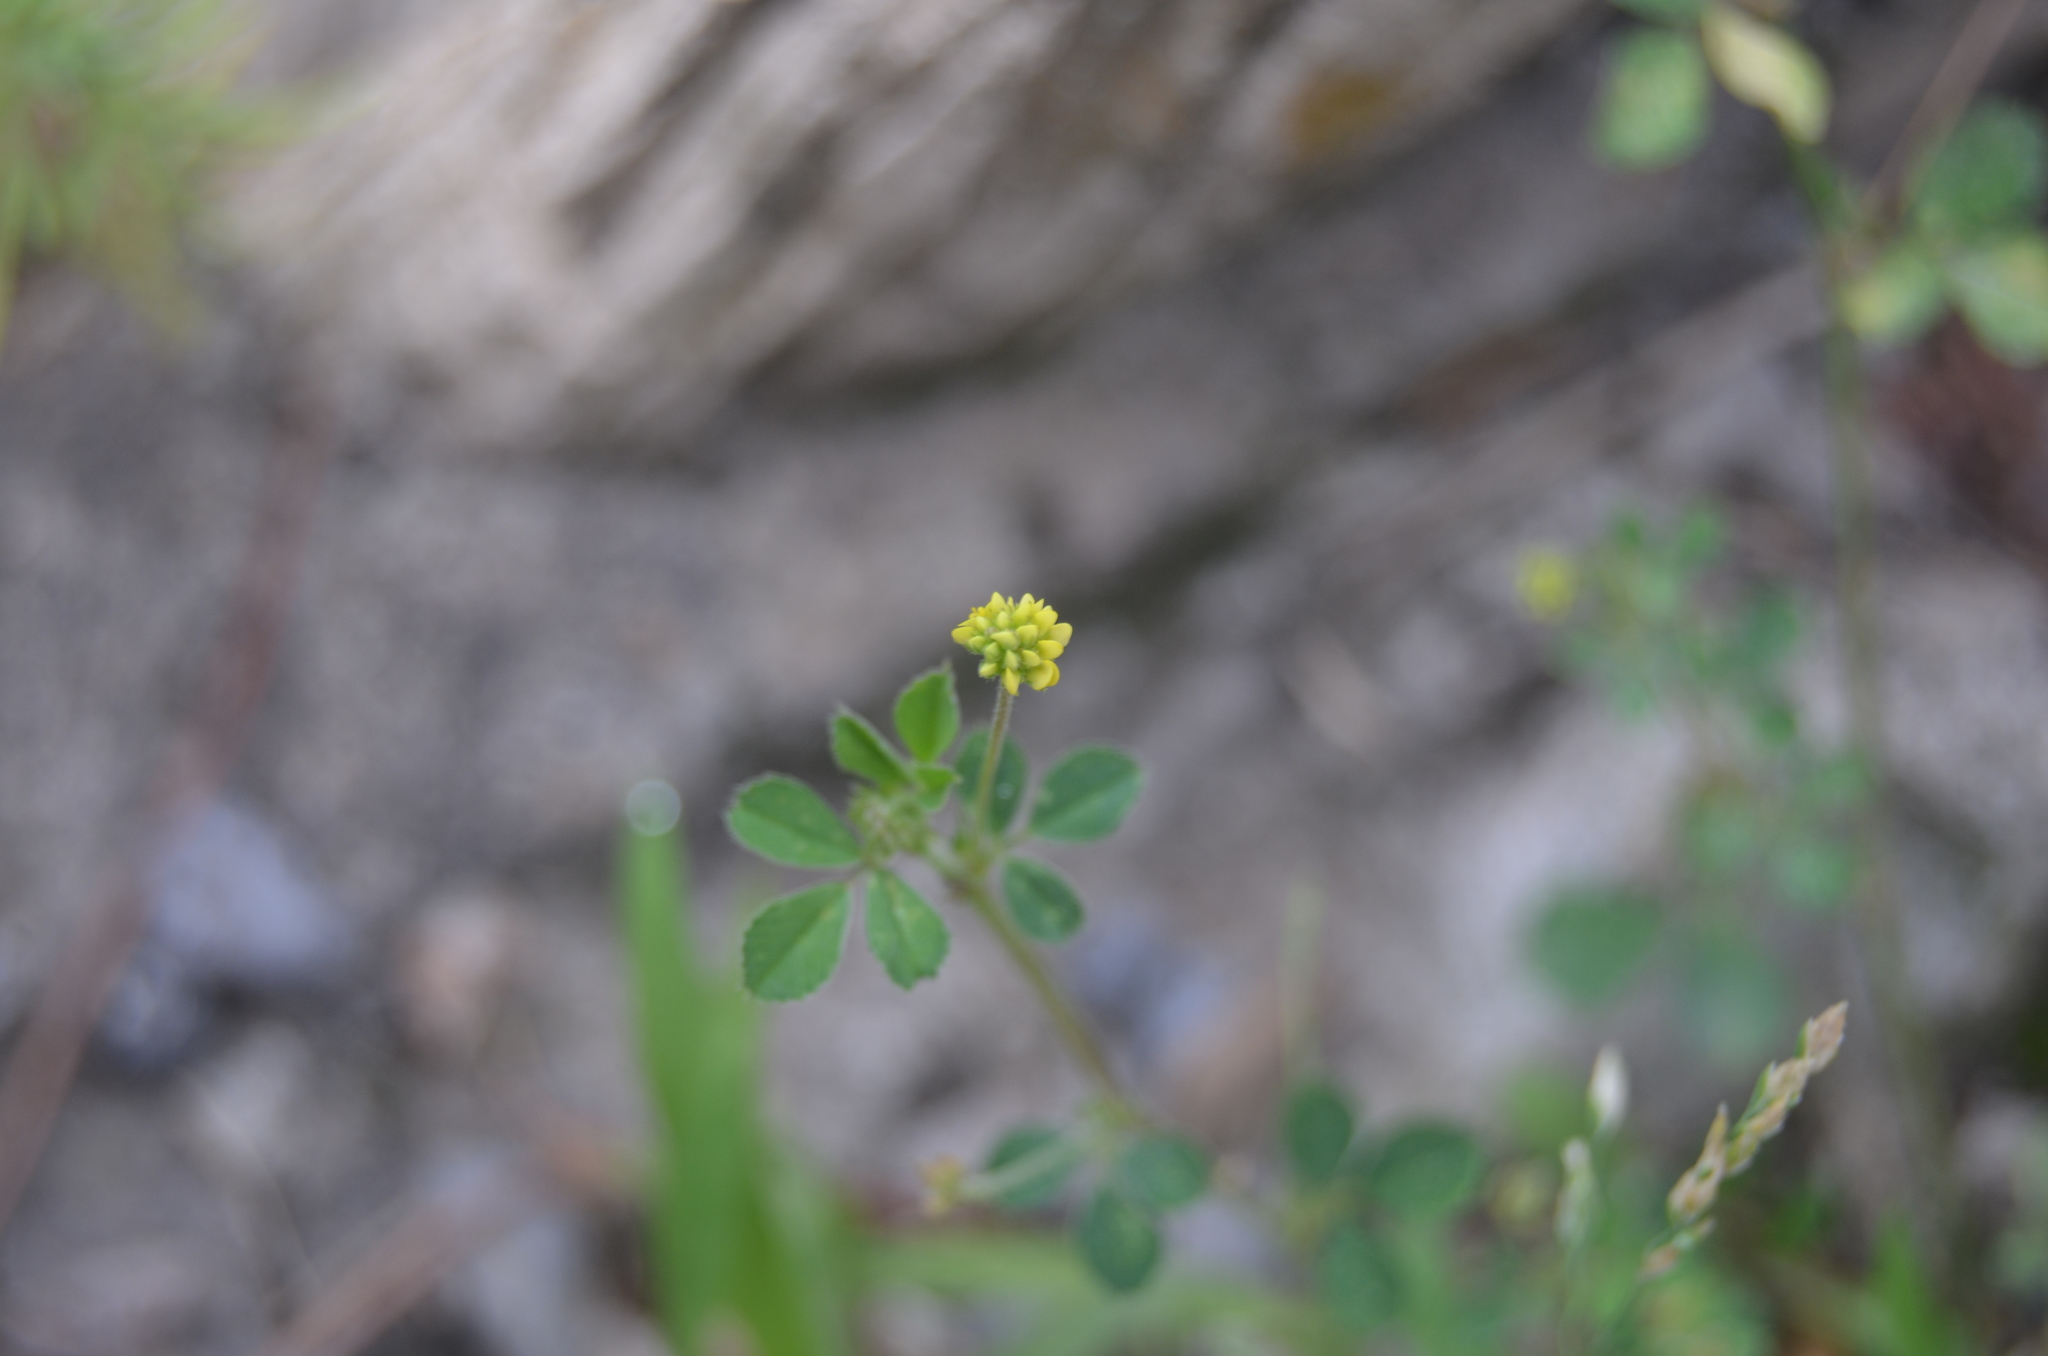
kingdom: Plantae
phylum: Tracheophyta
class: Magnoliopsida
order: Fabales
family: Fabaceae
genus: Medicago
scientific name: Medicago lupulina
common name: Black medick
